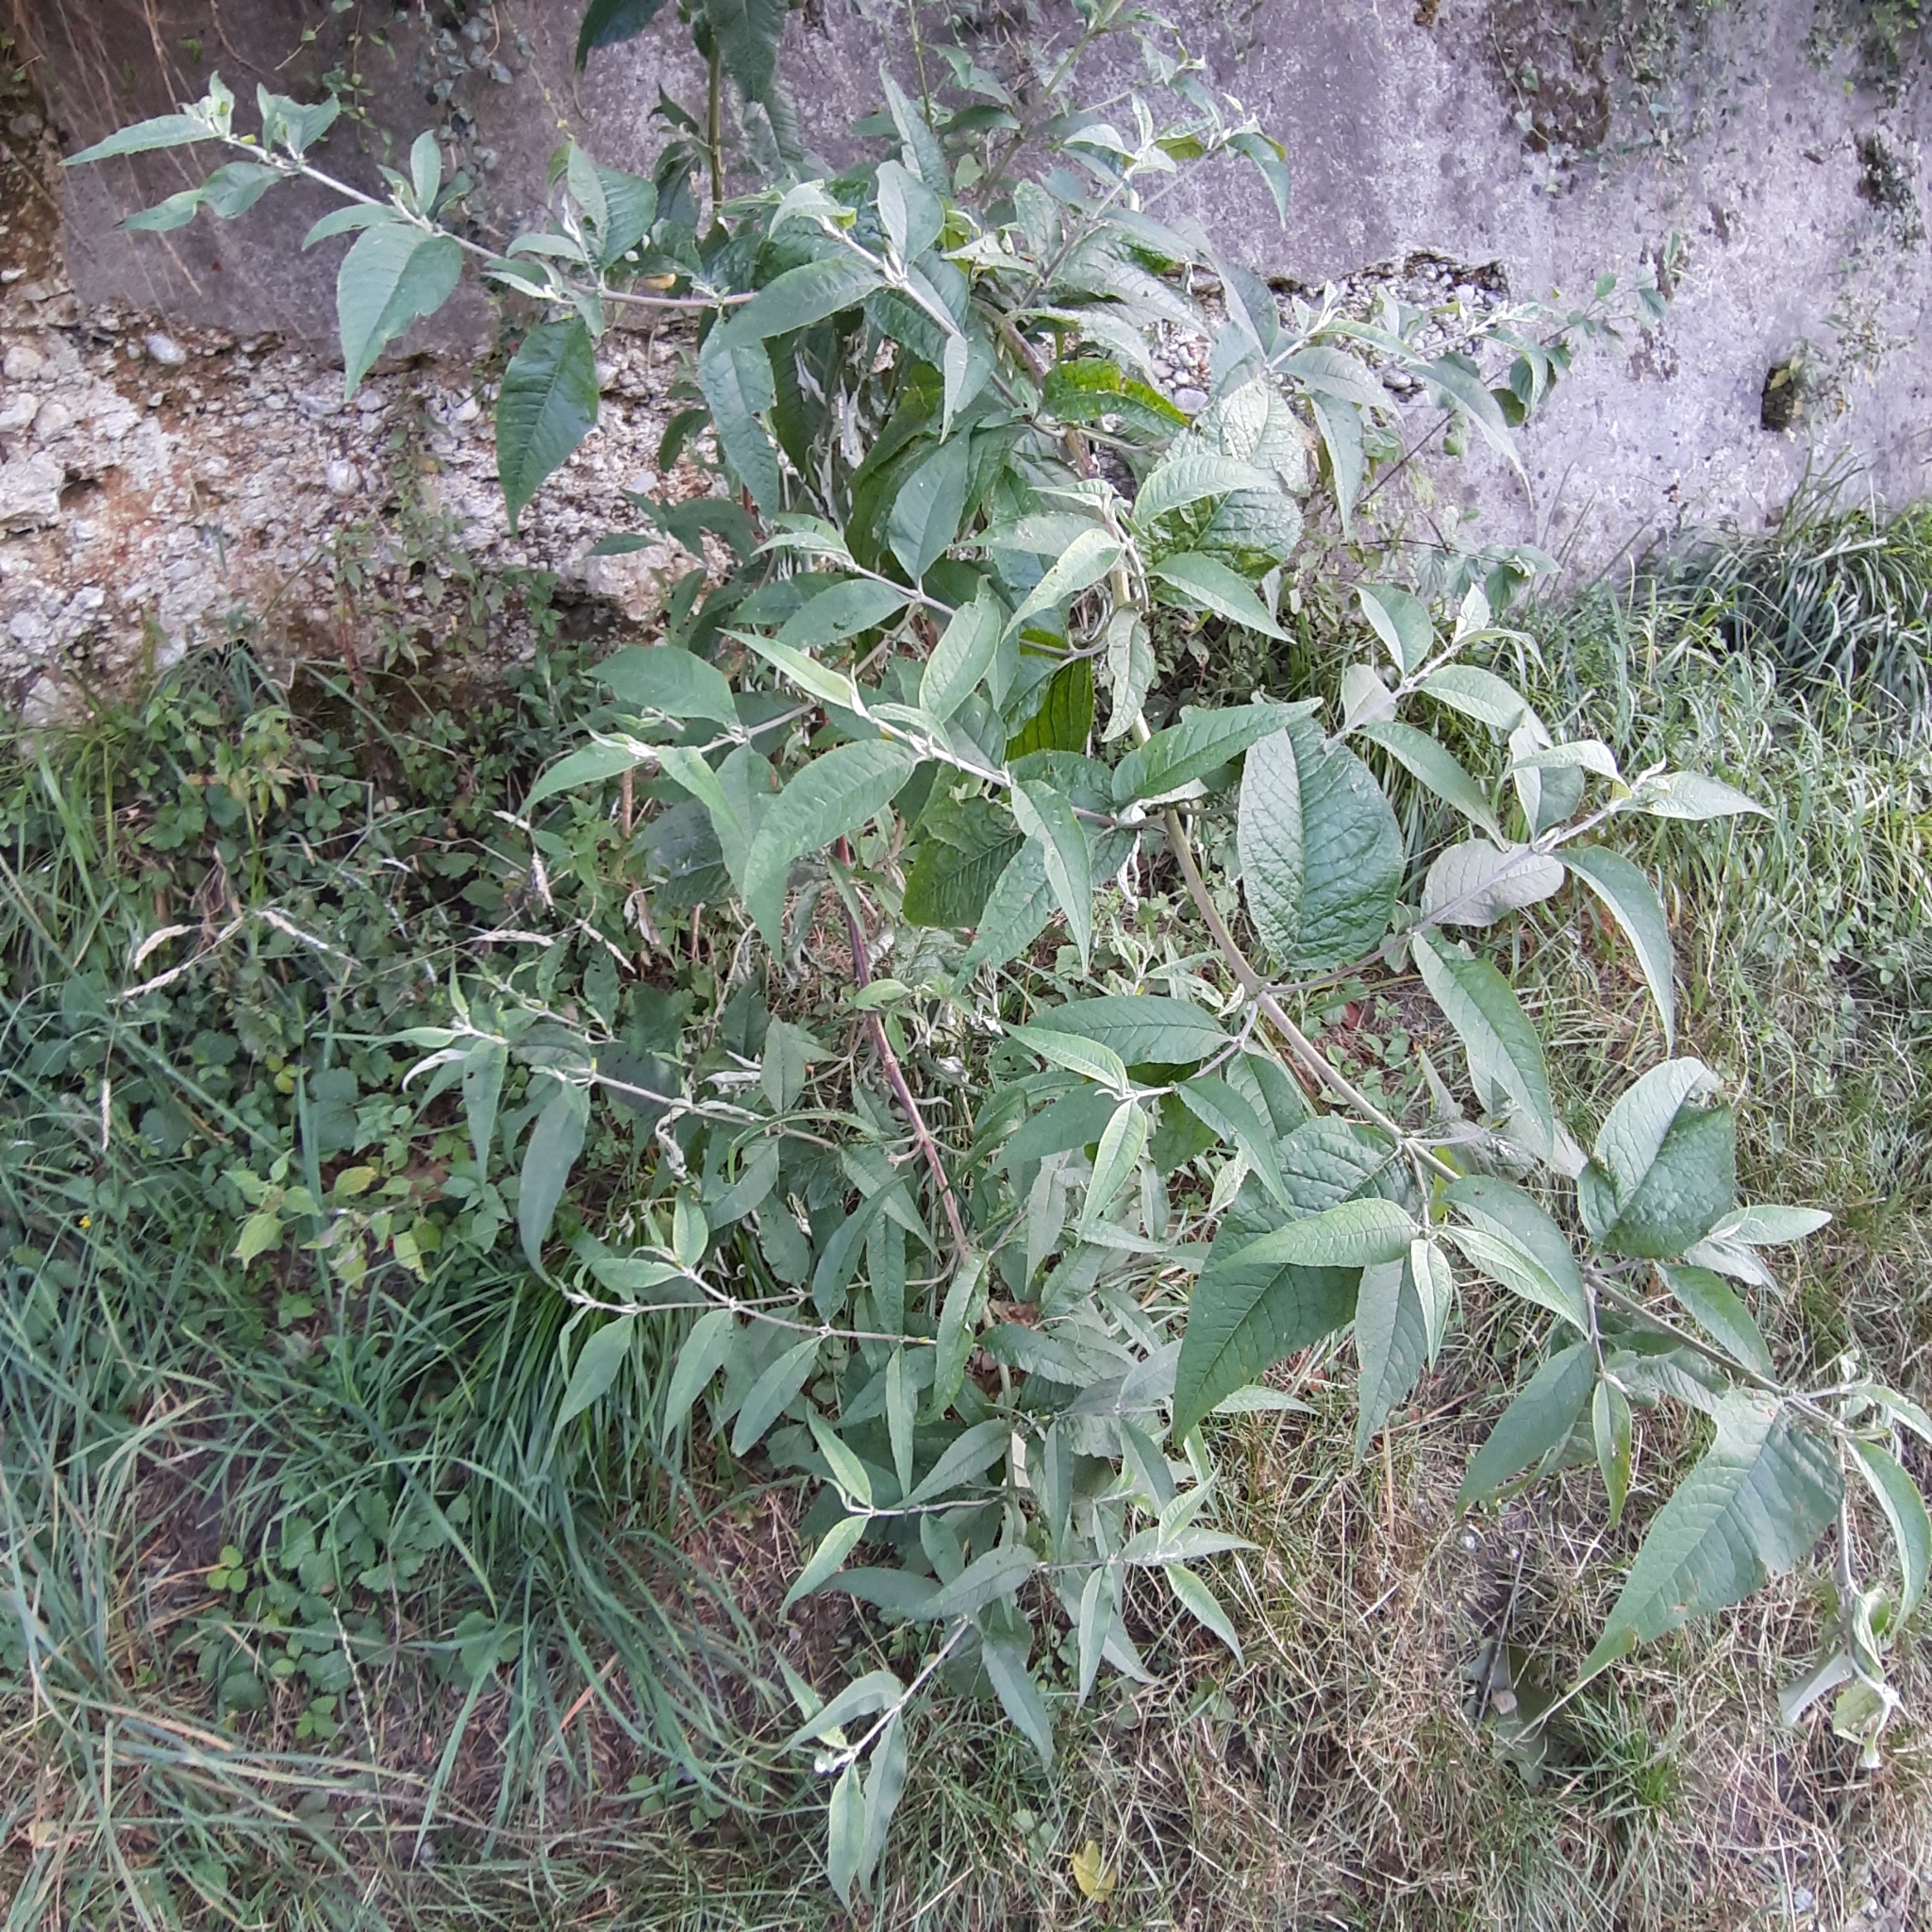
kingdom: Plantae
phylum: Tracheophyta
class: Magnoliopsida
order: Lamiales
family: Scrophulariaceae
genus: Buddleja
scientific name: Buddleja davidii
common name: Butterfly-bush
